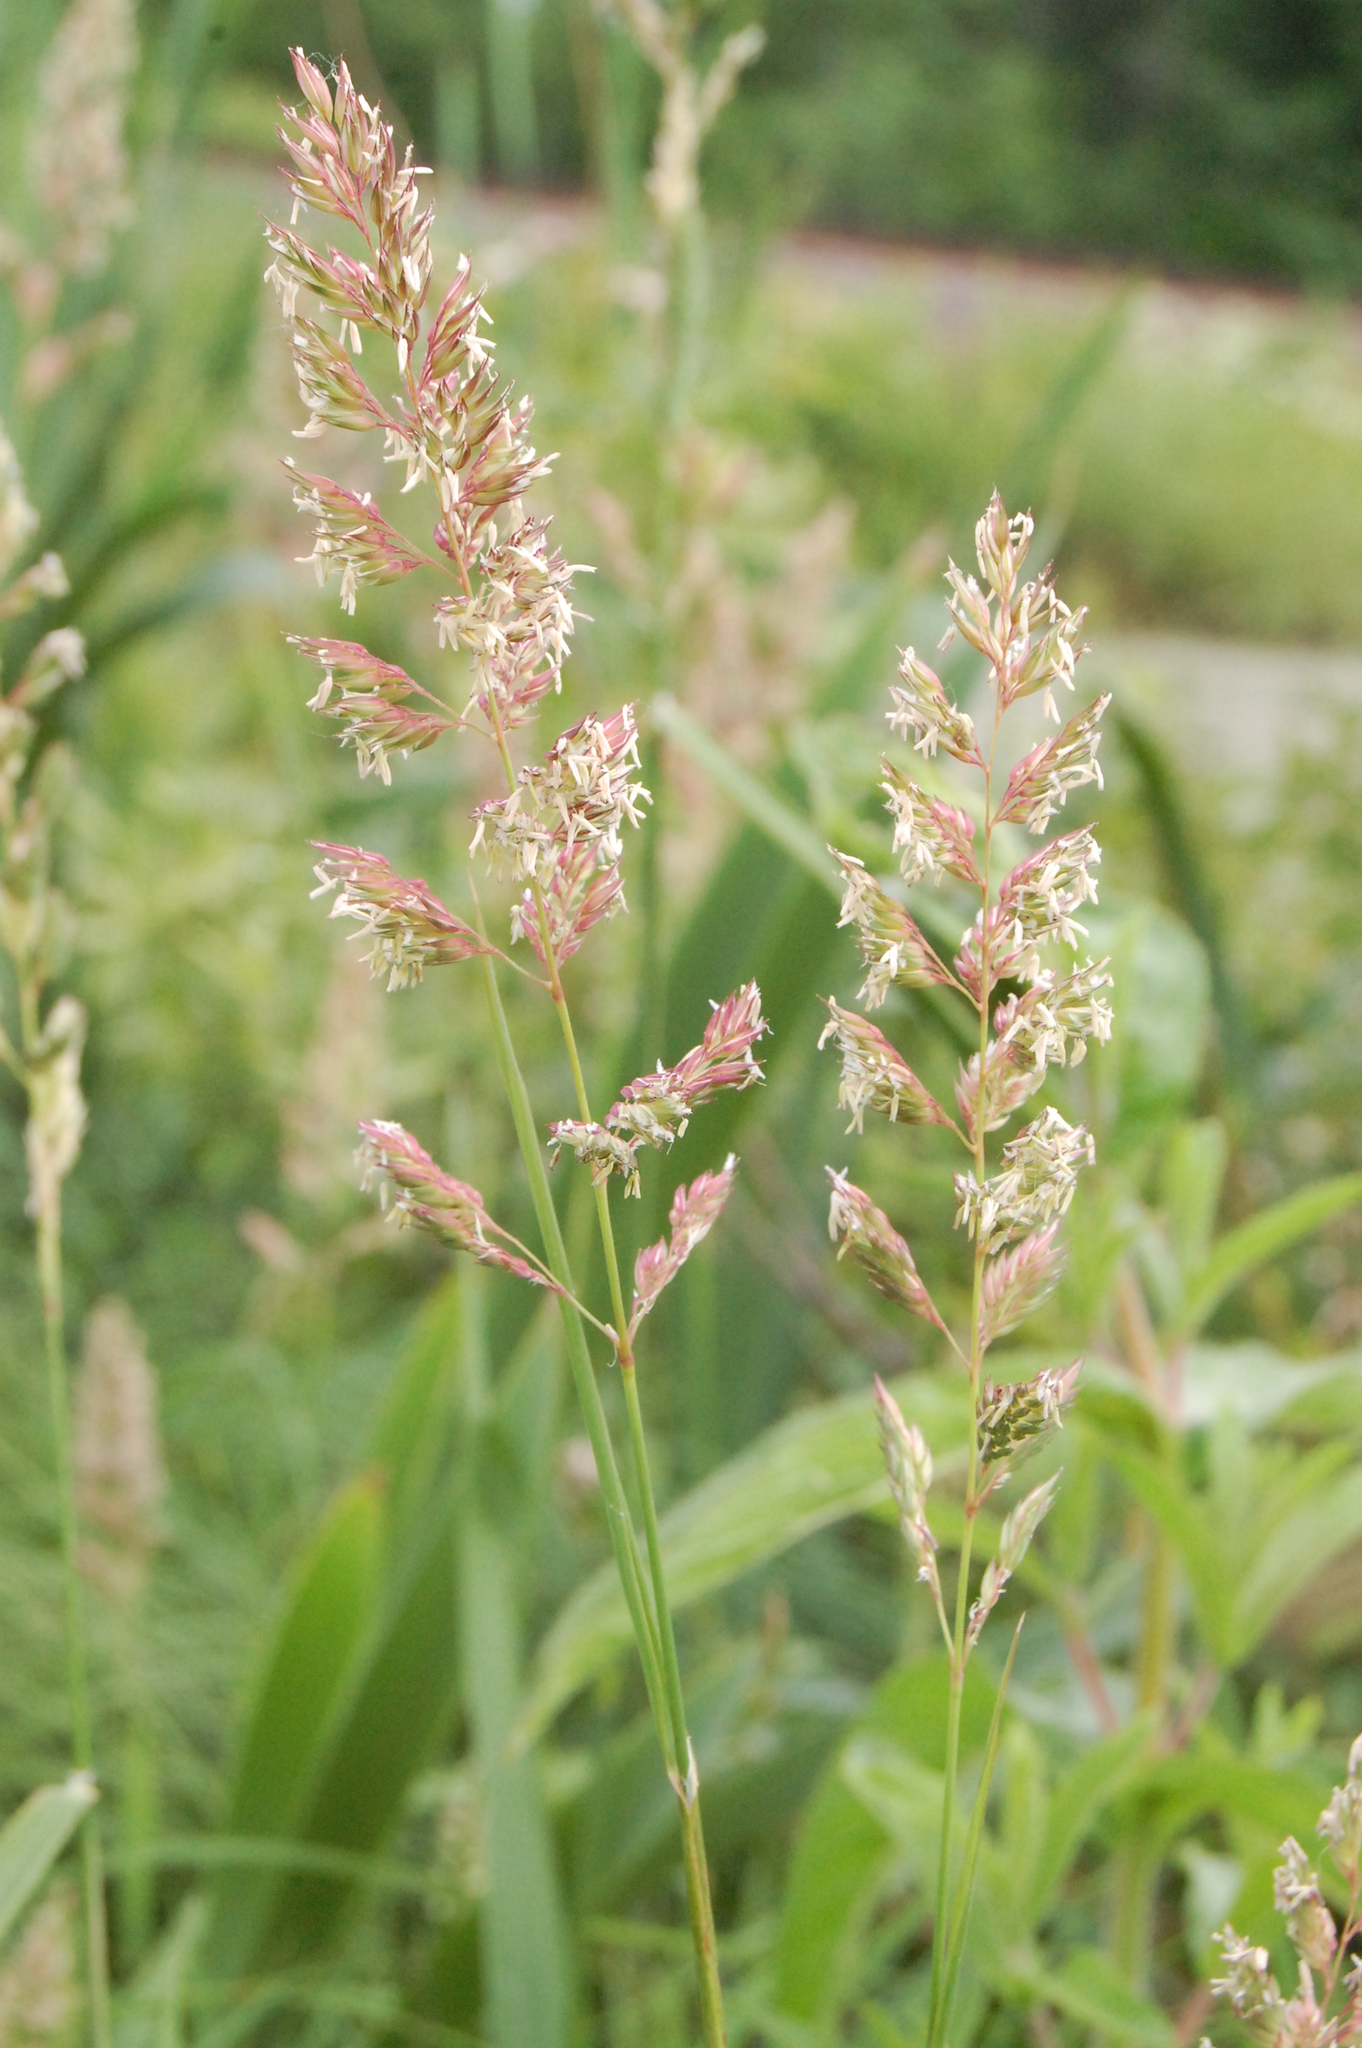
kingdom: Plantae
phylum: Tracheophyta
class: Liliopsida
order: Poales
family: Poaceae
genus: Phalaris
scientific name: Phalaris arundinacea
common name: Reed canary-grass
